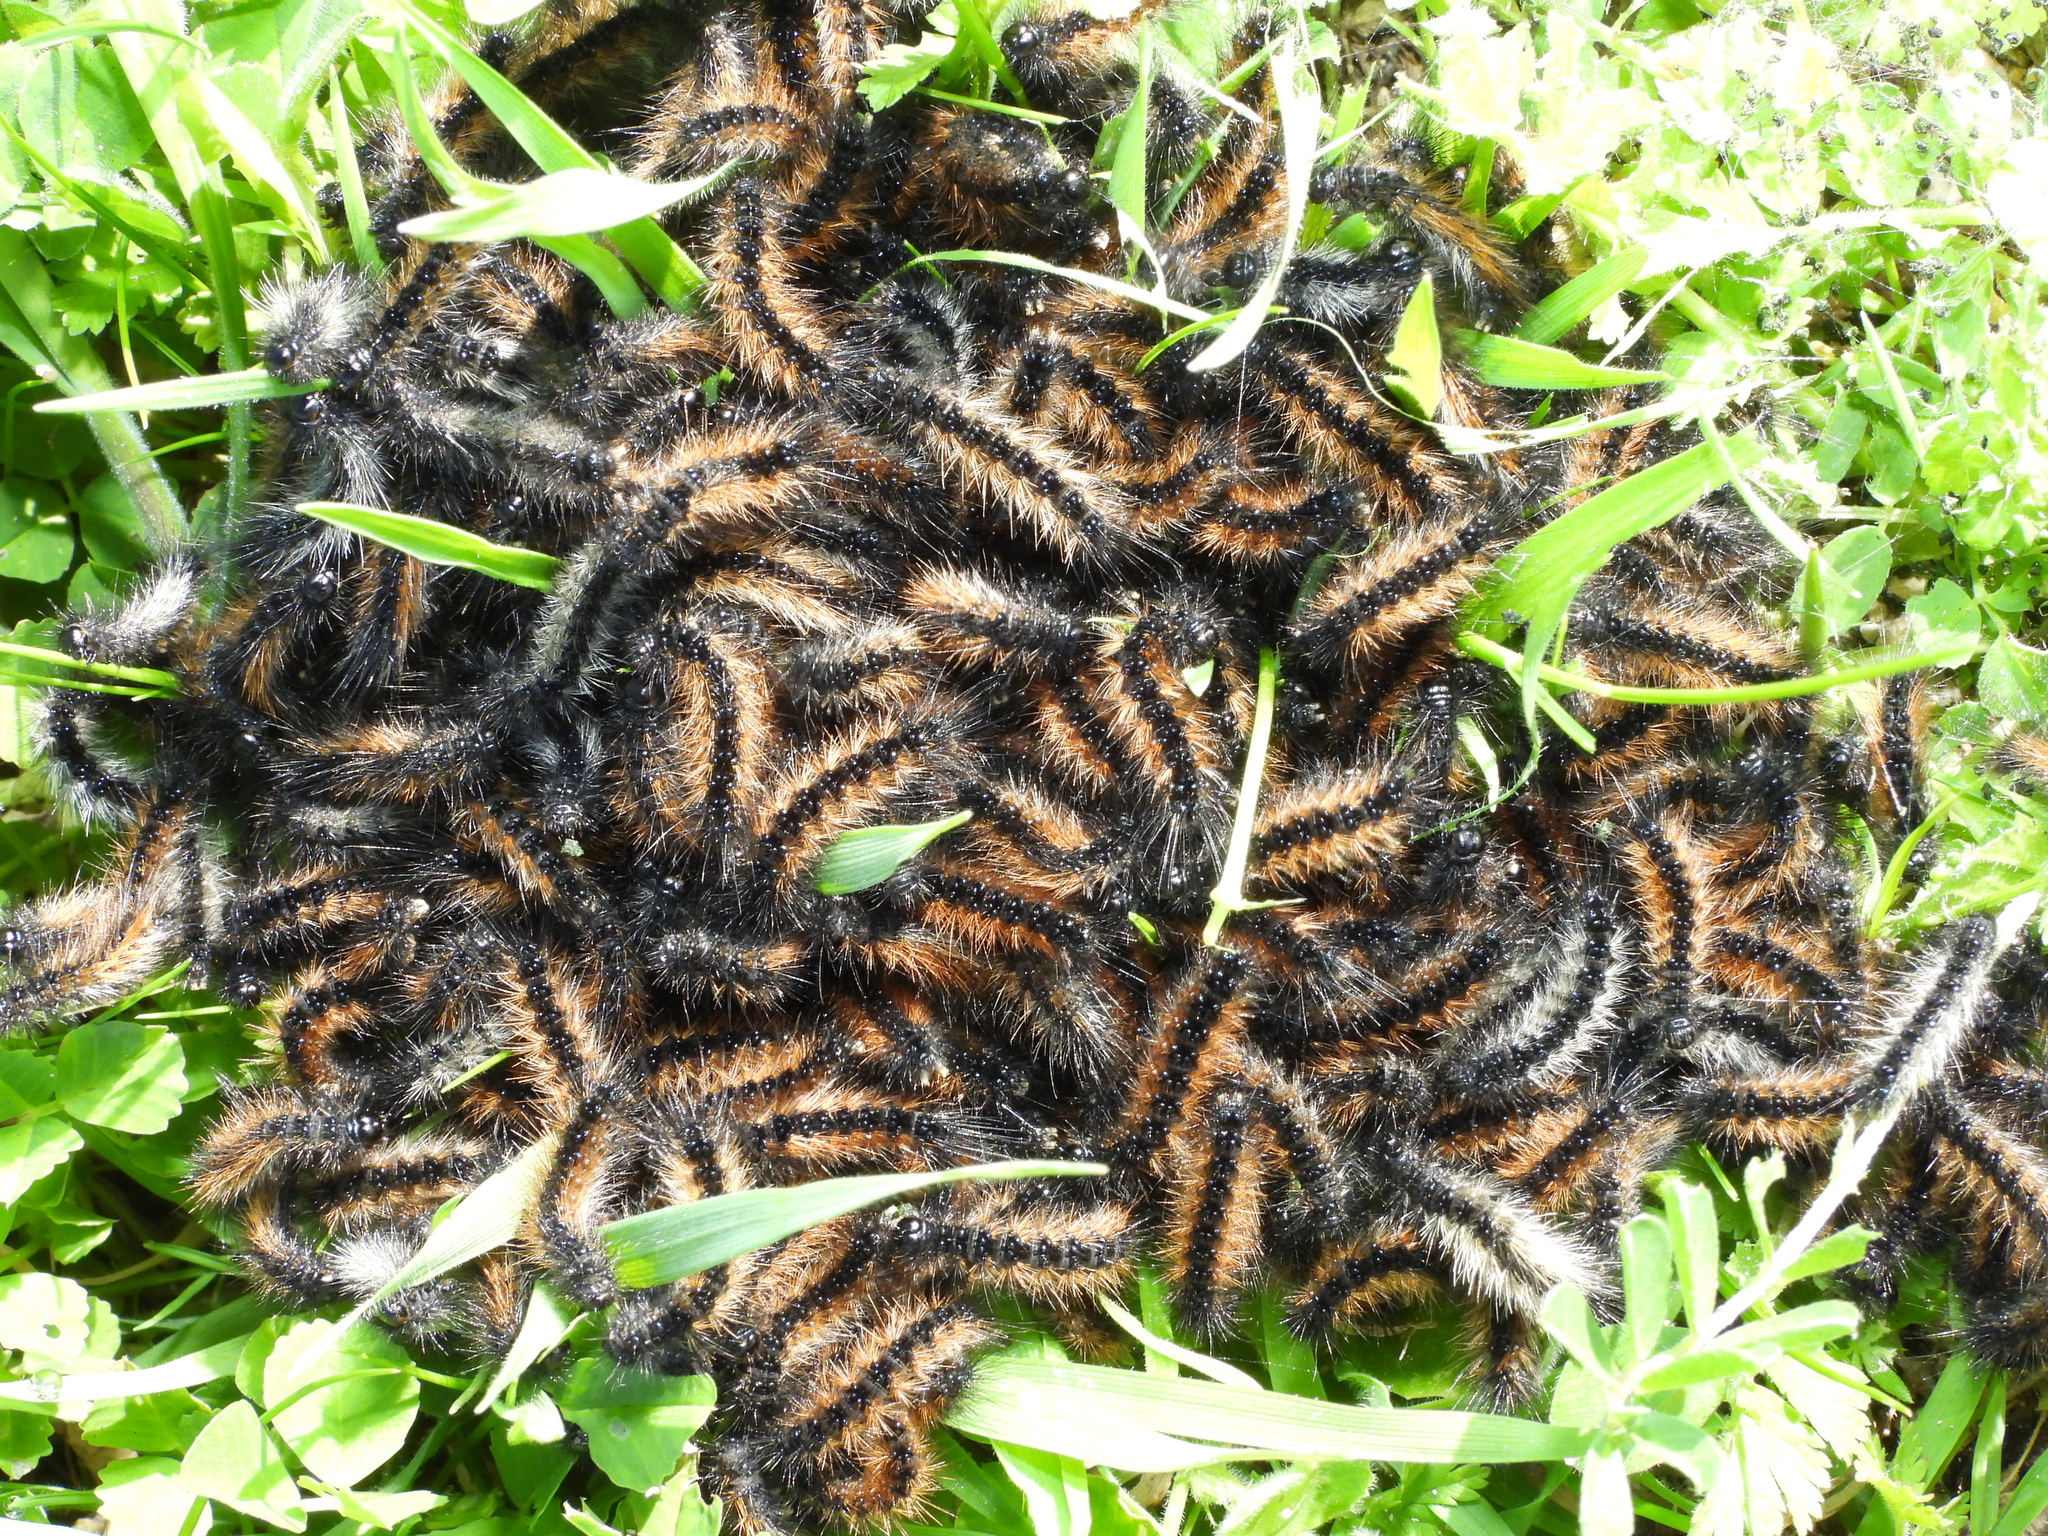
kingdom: Animalia
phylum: Arthropoda
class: Insecta
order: Lepidoptera
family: Erebidae
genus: Ocnogyna
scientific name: Ocnogyna loewii
